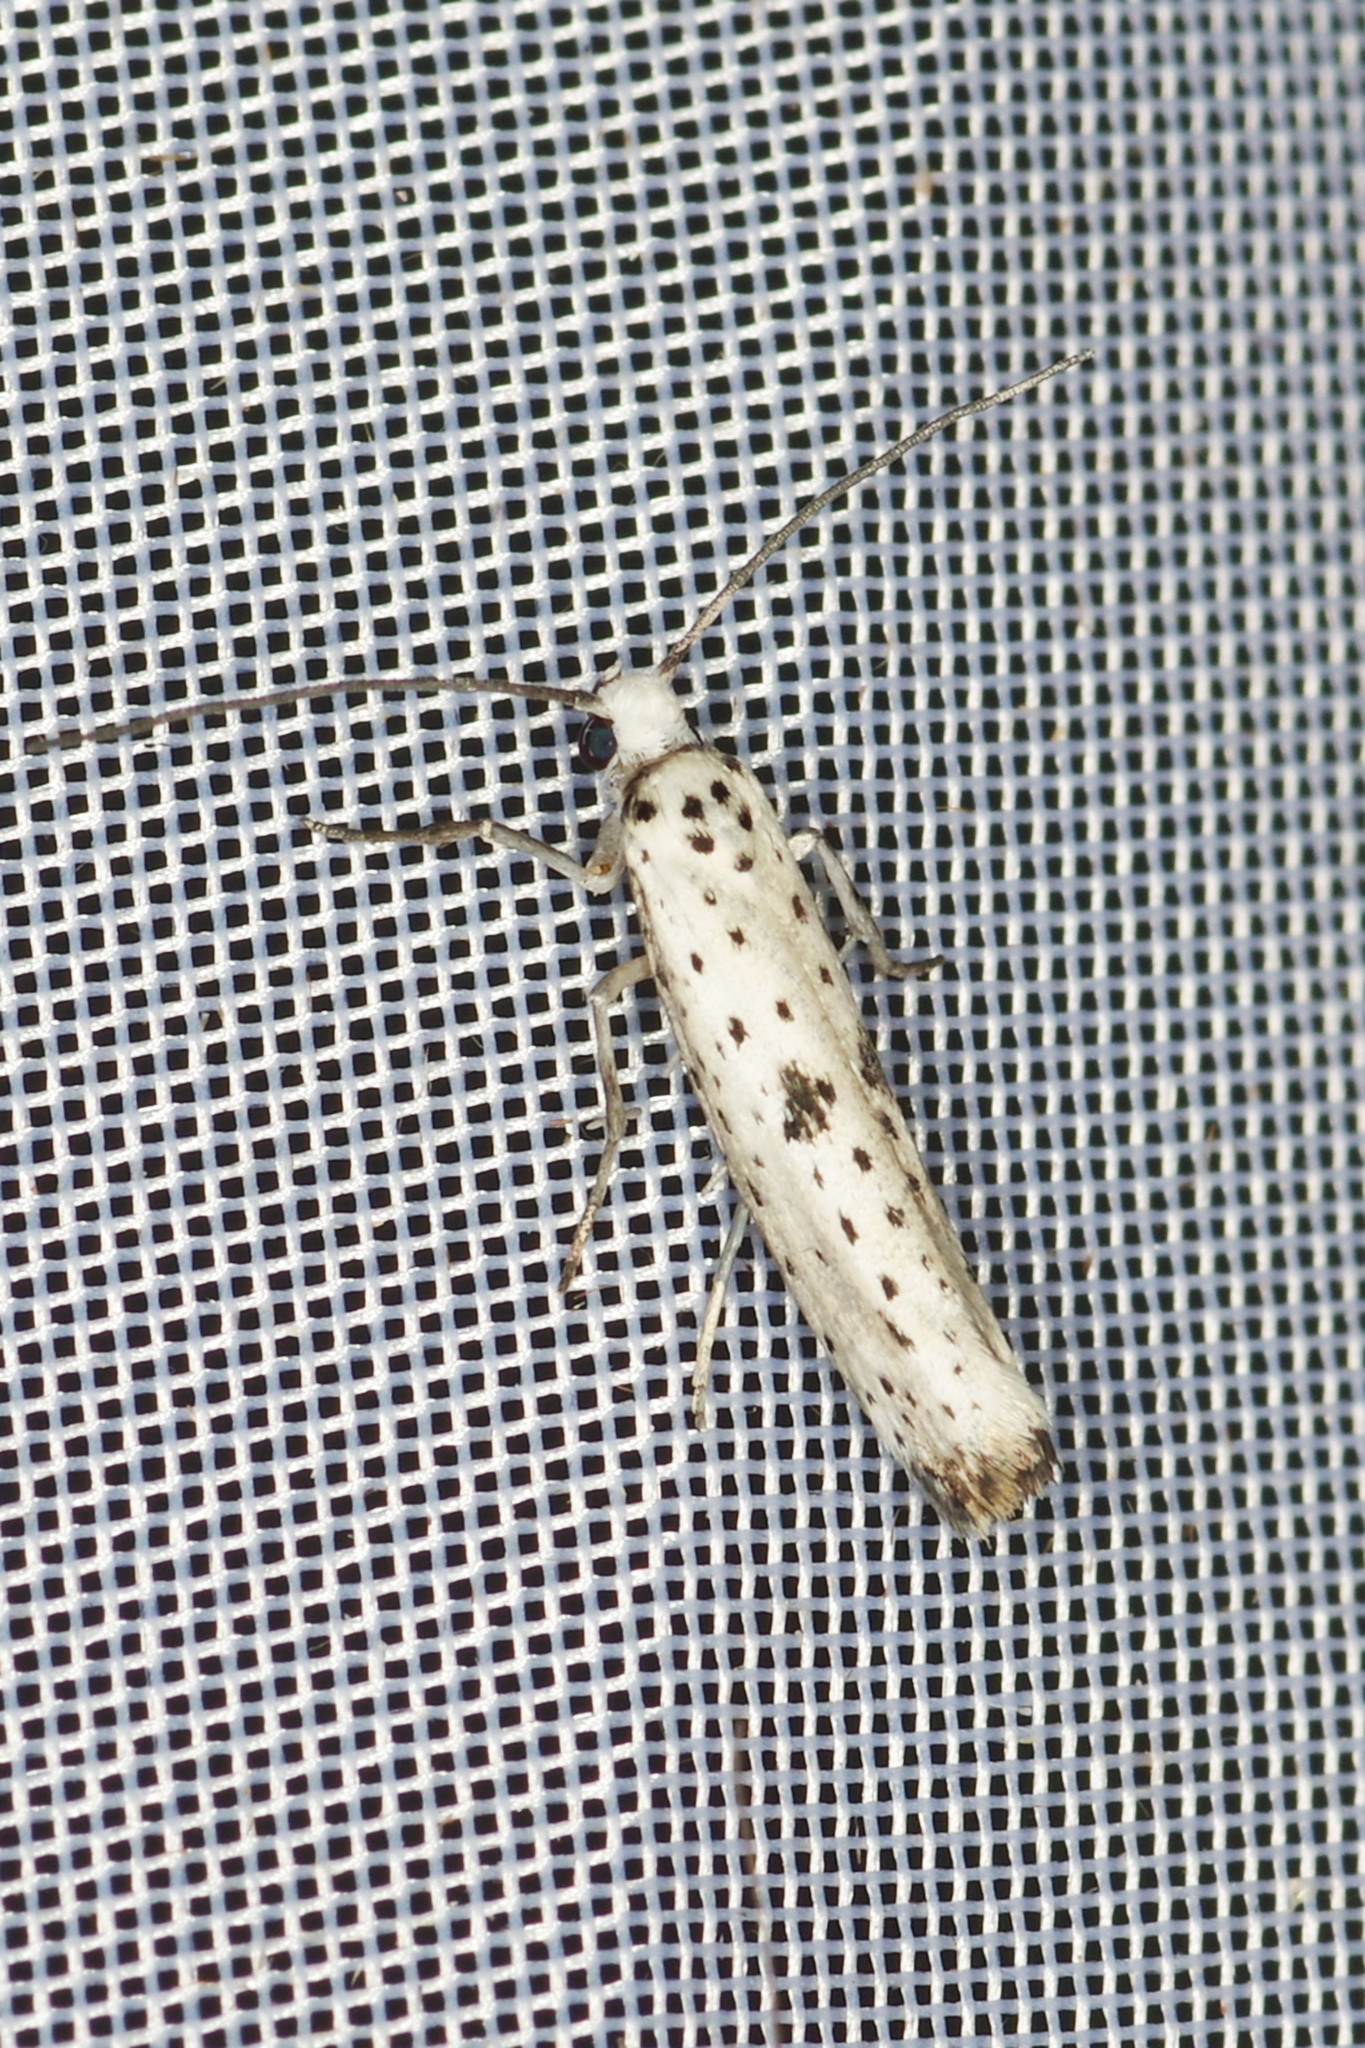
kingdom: Animalia
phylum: Arthropoda
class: Insecta
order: Lepidoptera
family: Yponomeutidae
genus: Yponomeuta
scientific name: Yponomeuta plumbella
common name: Black-tipped ermine
